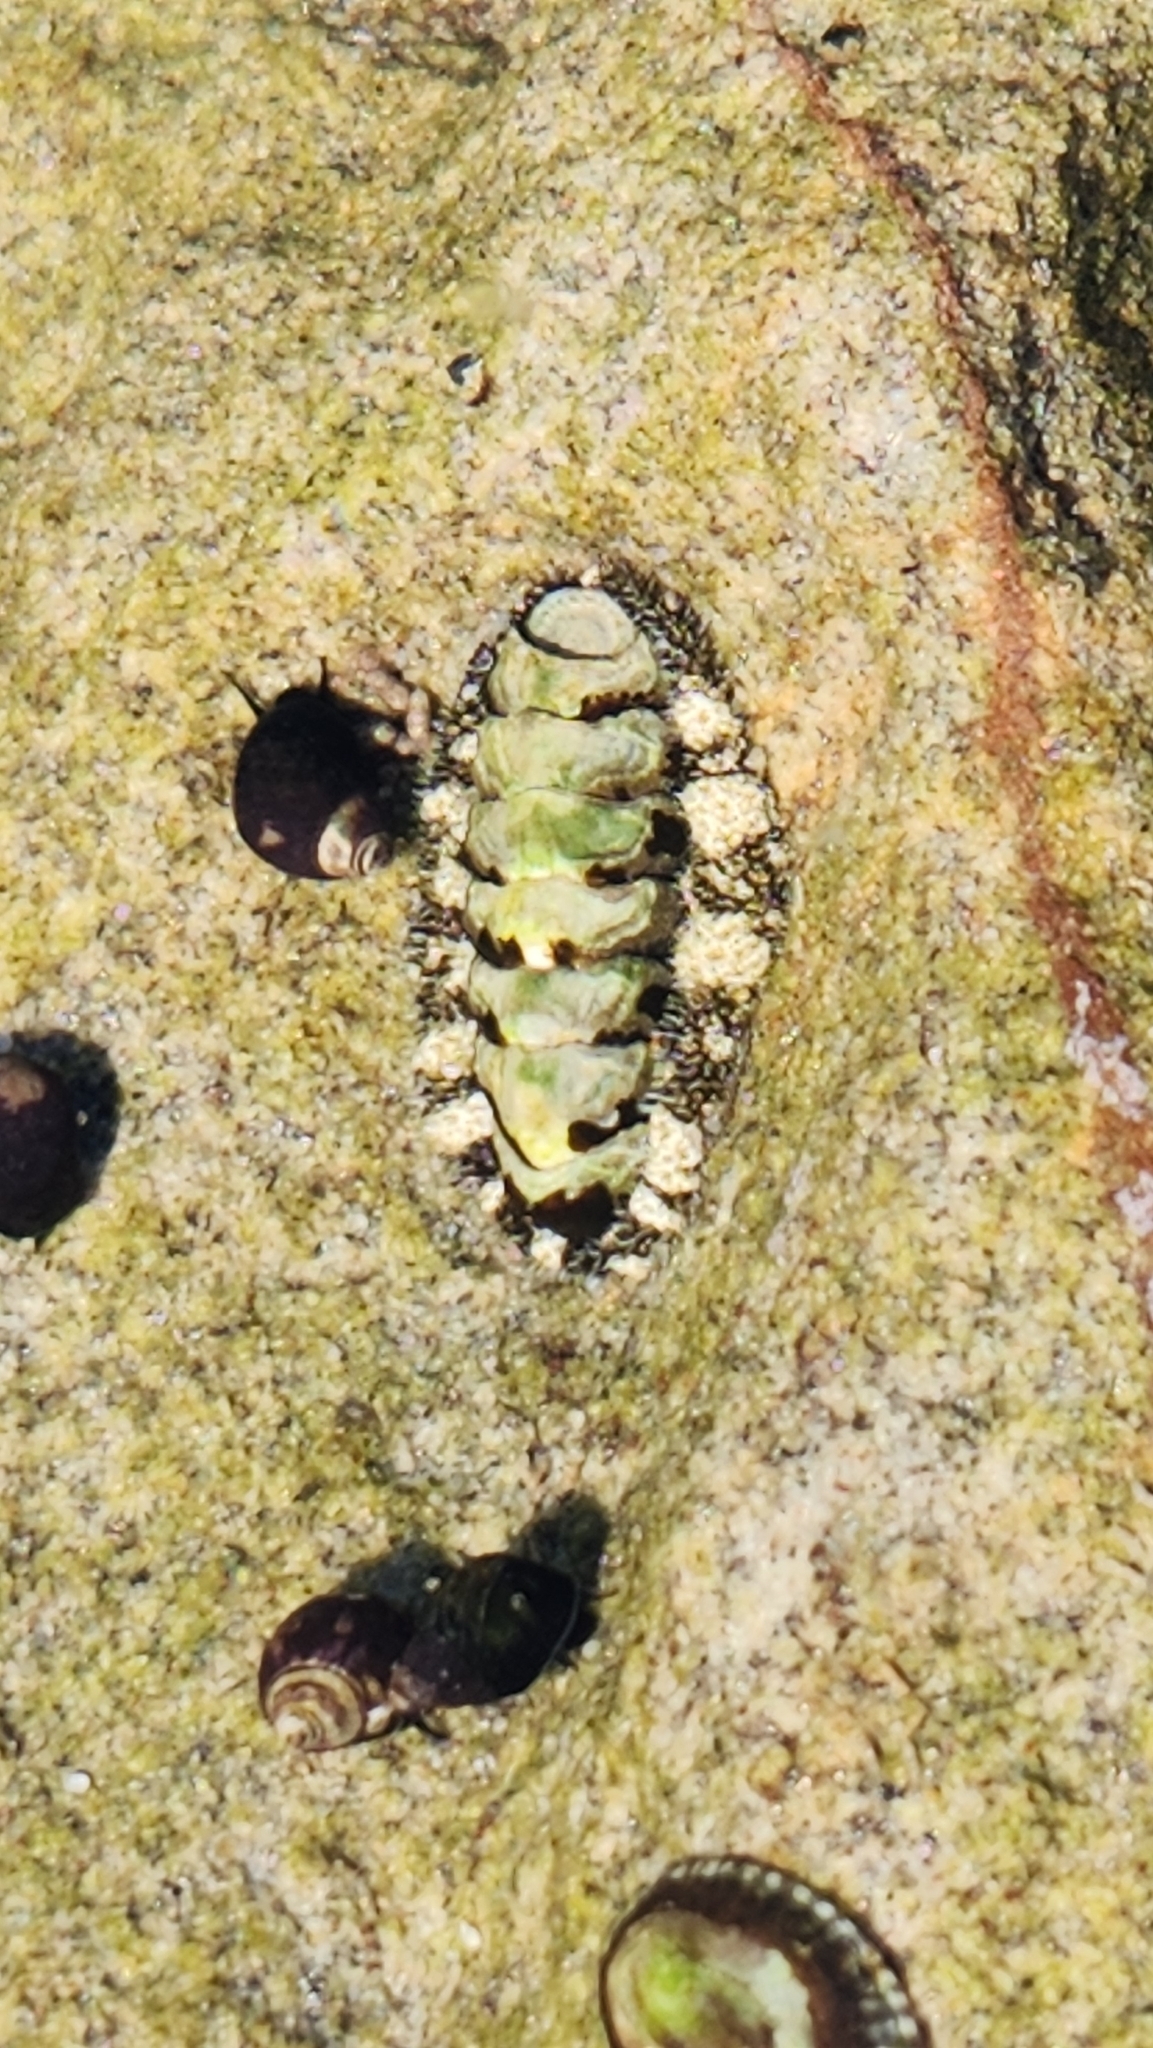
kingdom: Animalia
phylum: Mollusca
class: Polyplacophora
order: Chitonida
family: Tonicellidae
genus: Nuttallina
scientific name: Nuttallina californica
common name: California nuttall chiton
